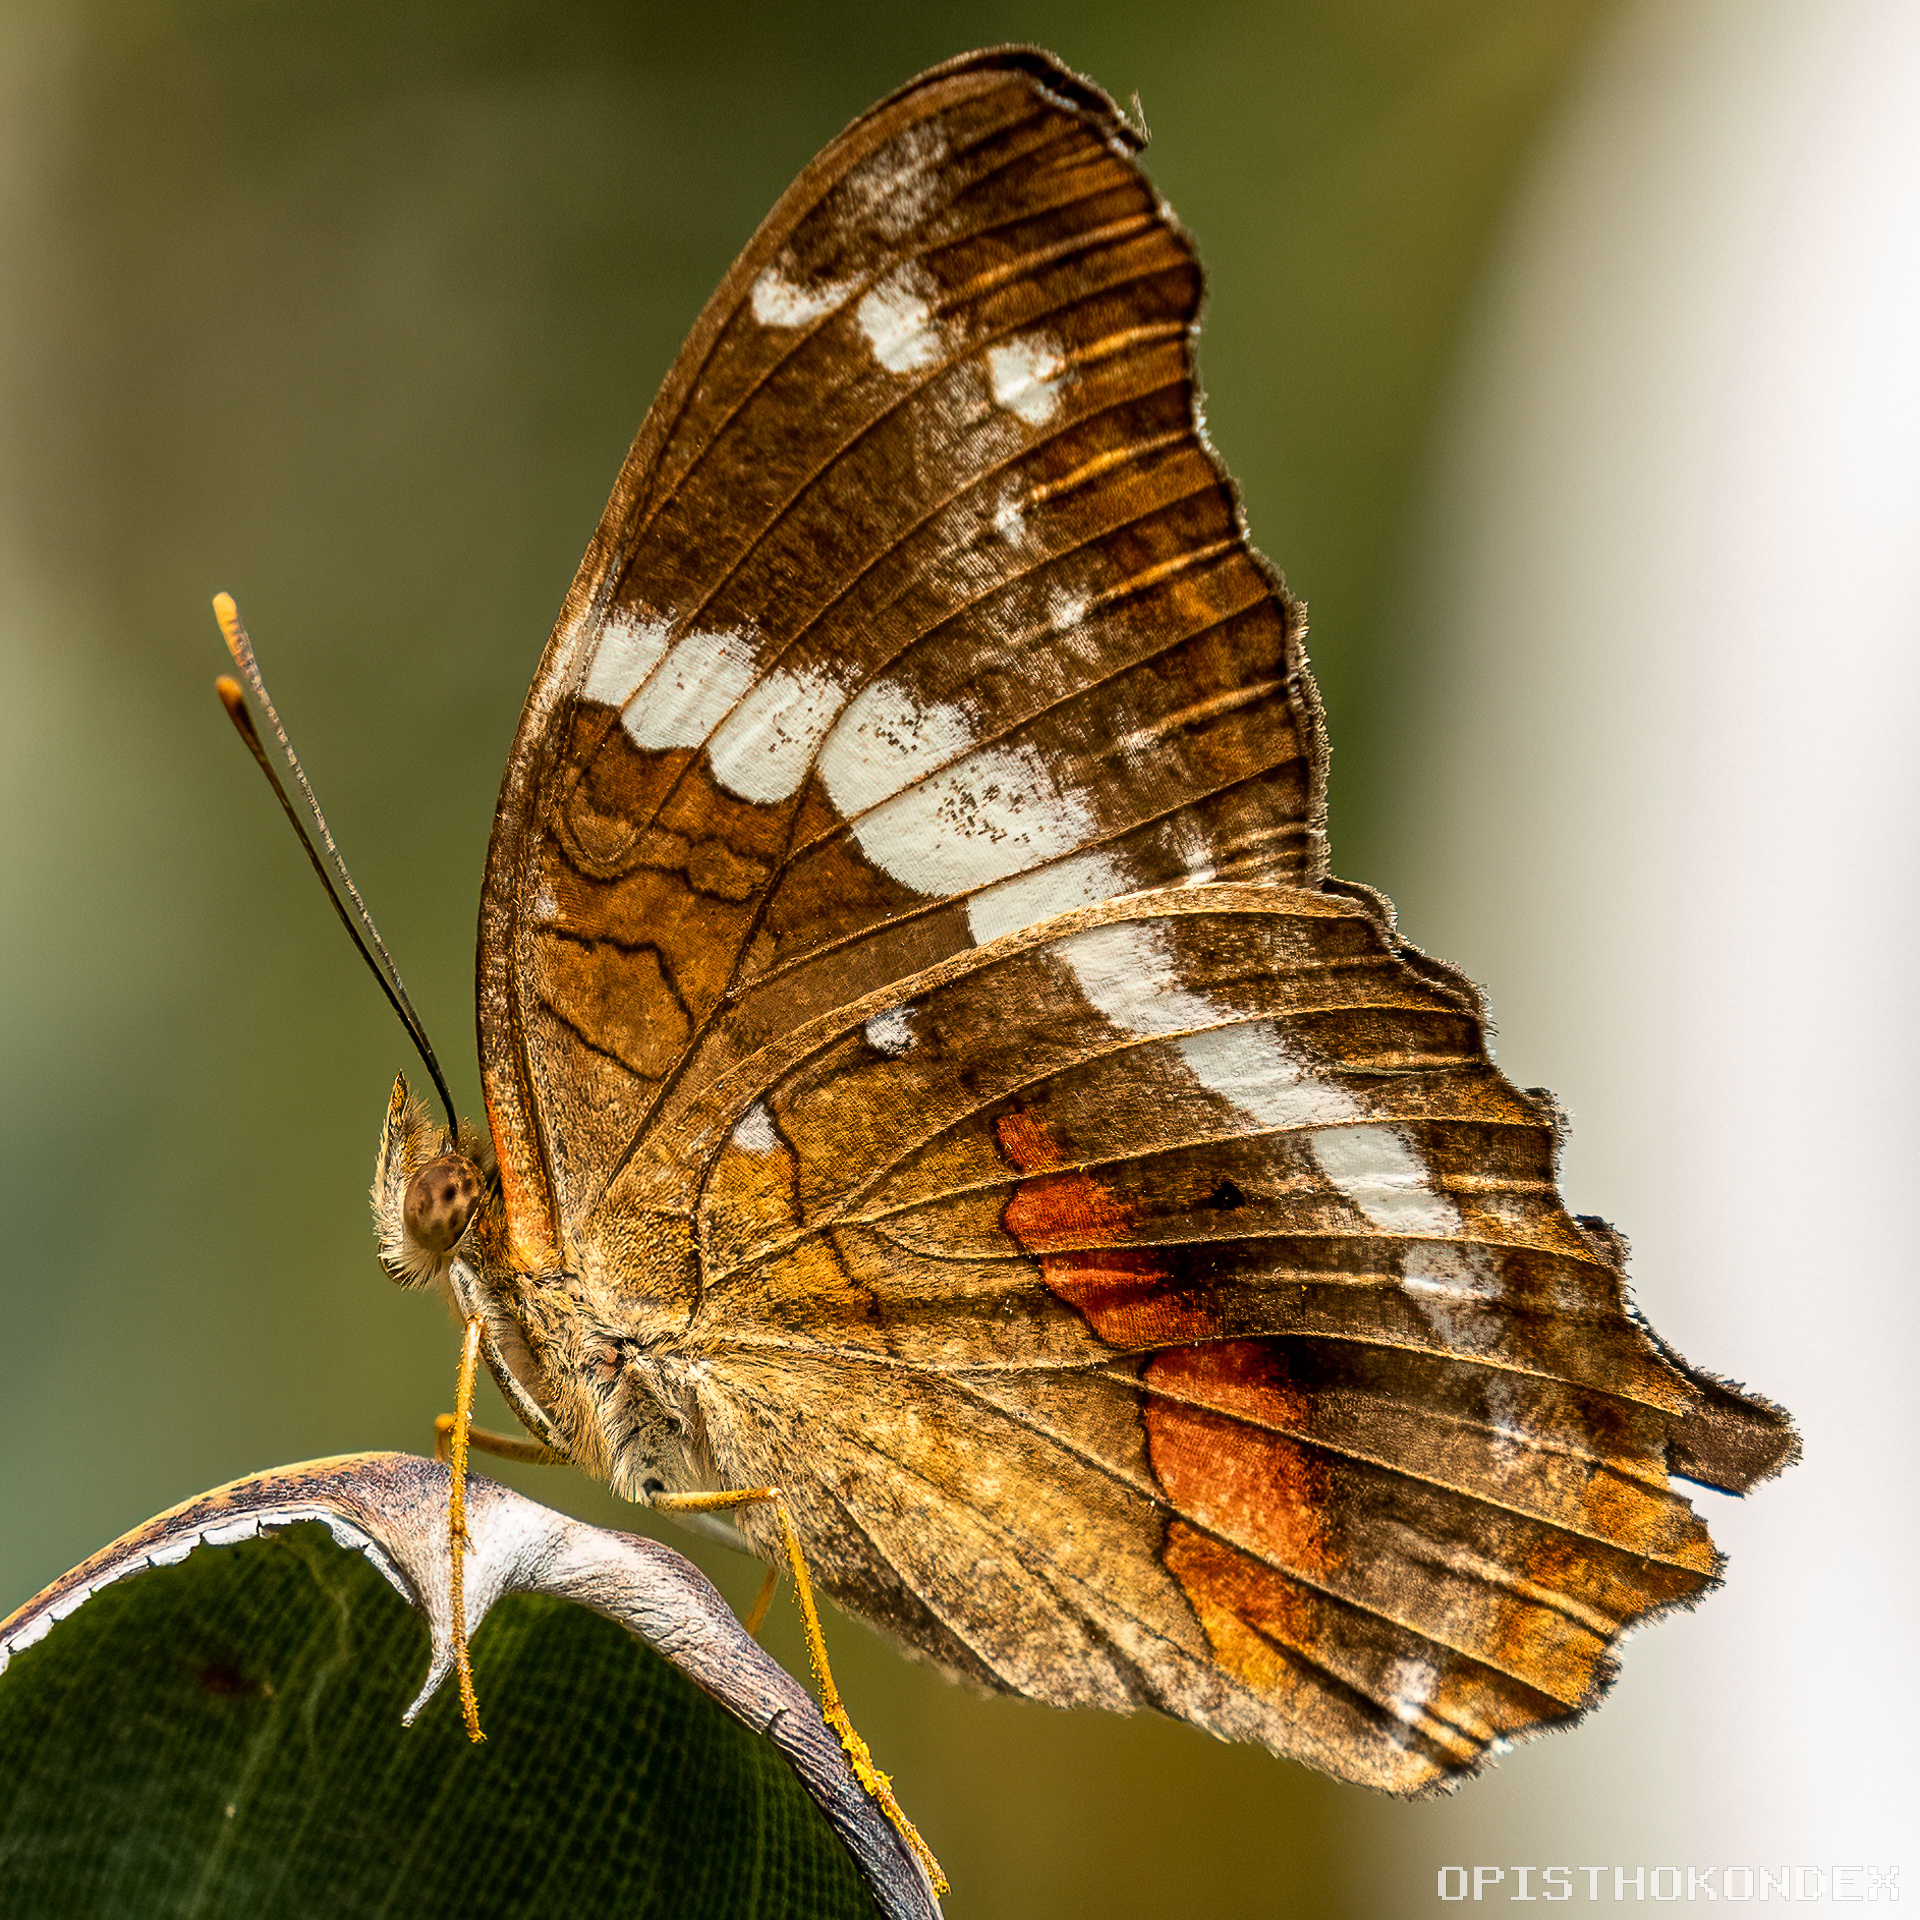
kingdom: Animalia
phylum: Arthropoda
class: Insecta
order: Lepidoptera
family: Nymphalidae
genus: Anartia
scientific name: Anartia fatima
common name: Banded peacock
